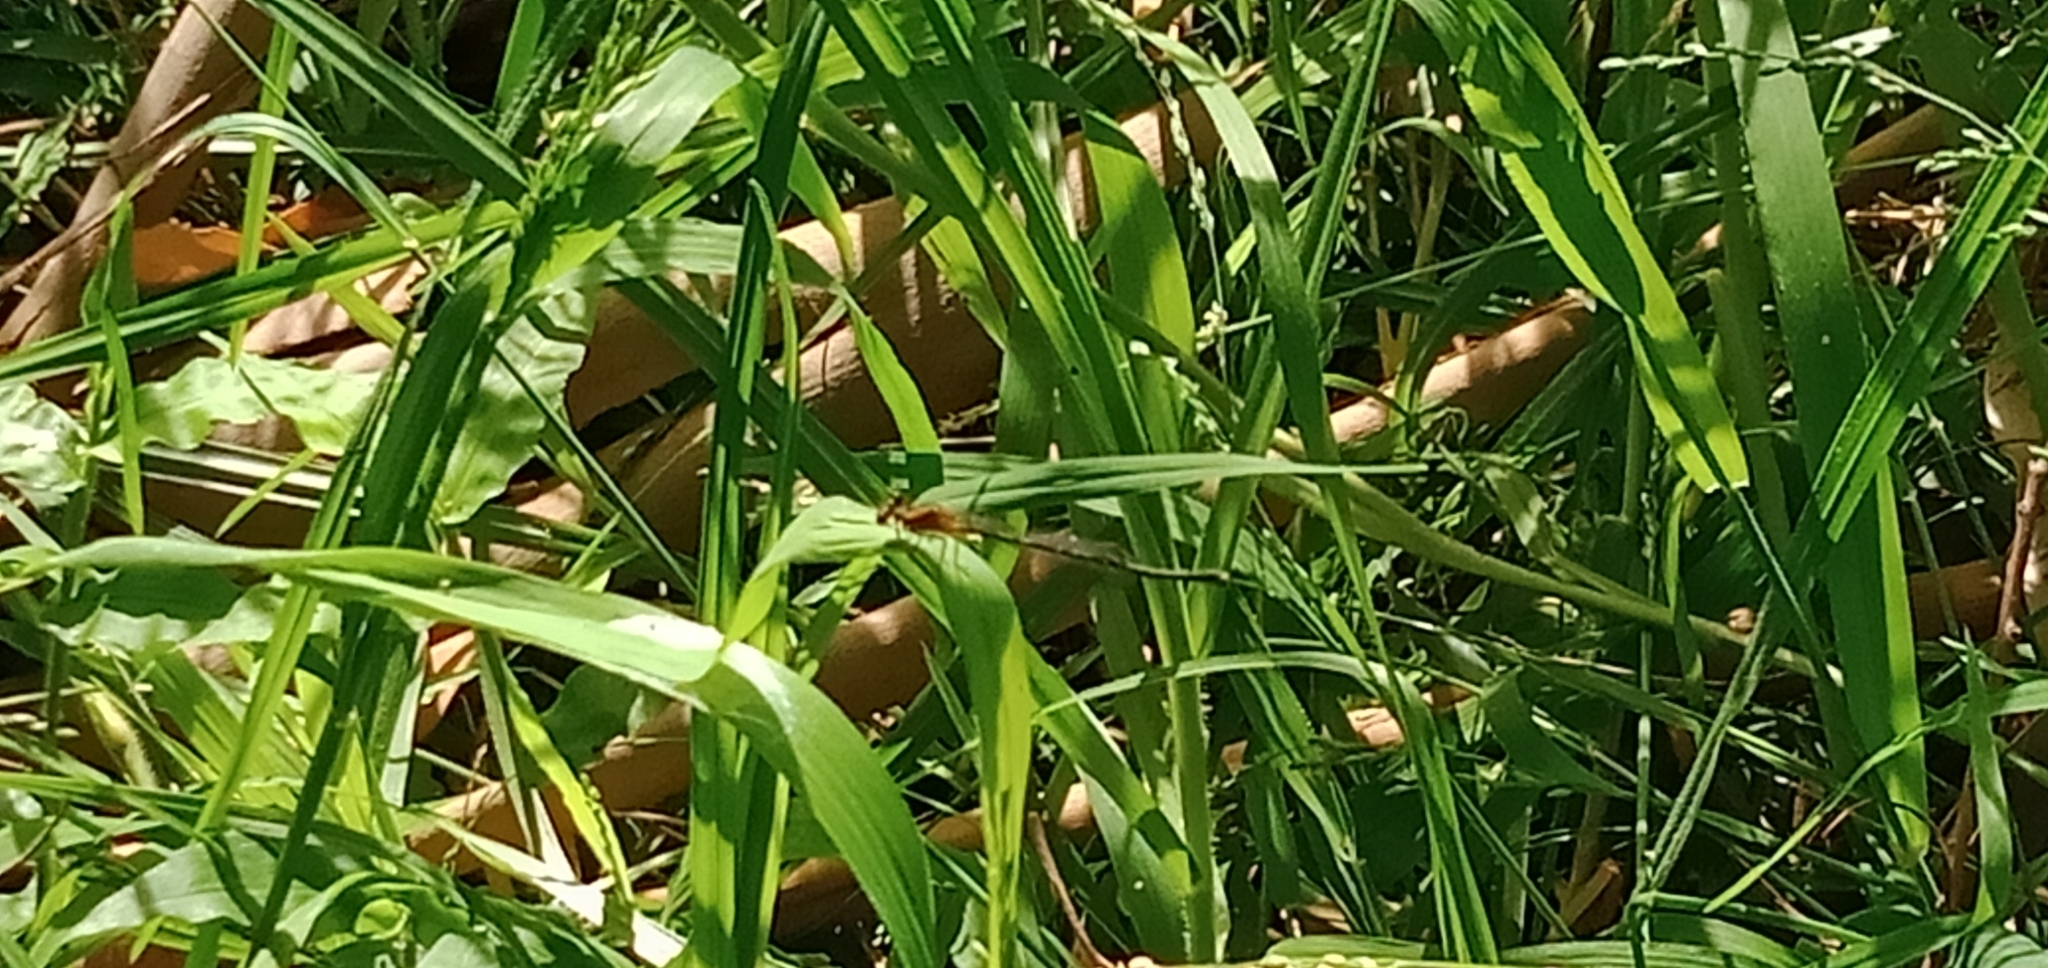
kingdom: Animalia
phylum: Arthropoda
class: Insecta
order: Odonata
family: Platycnemididae
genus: Nososticta
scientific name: Nososticta solida
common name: Orange threadtail
